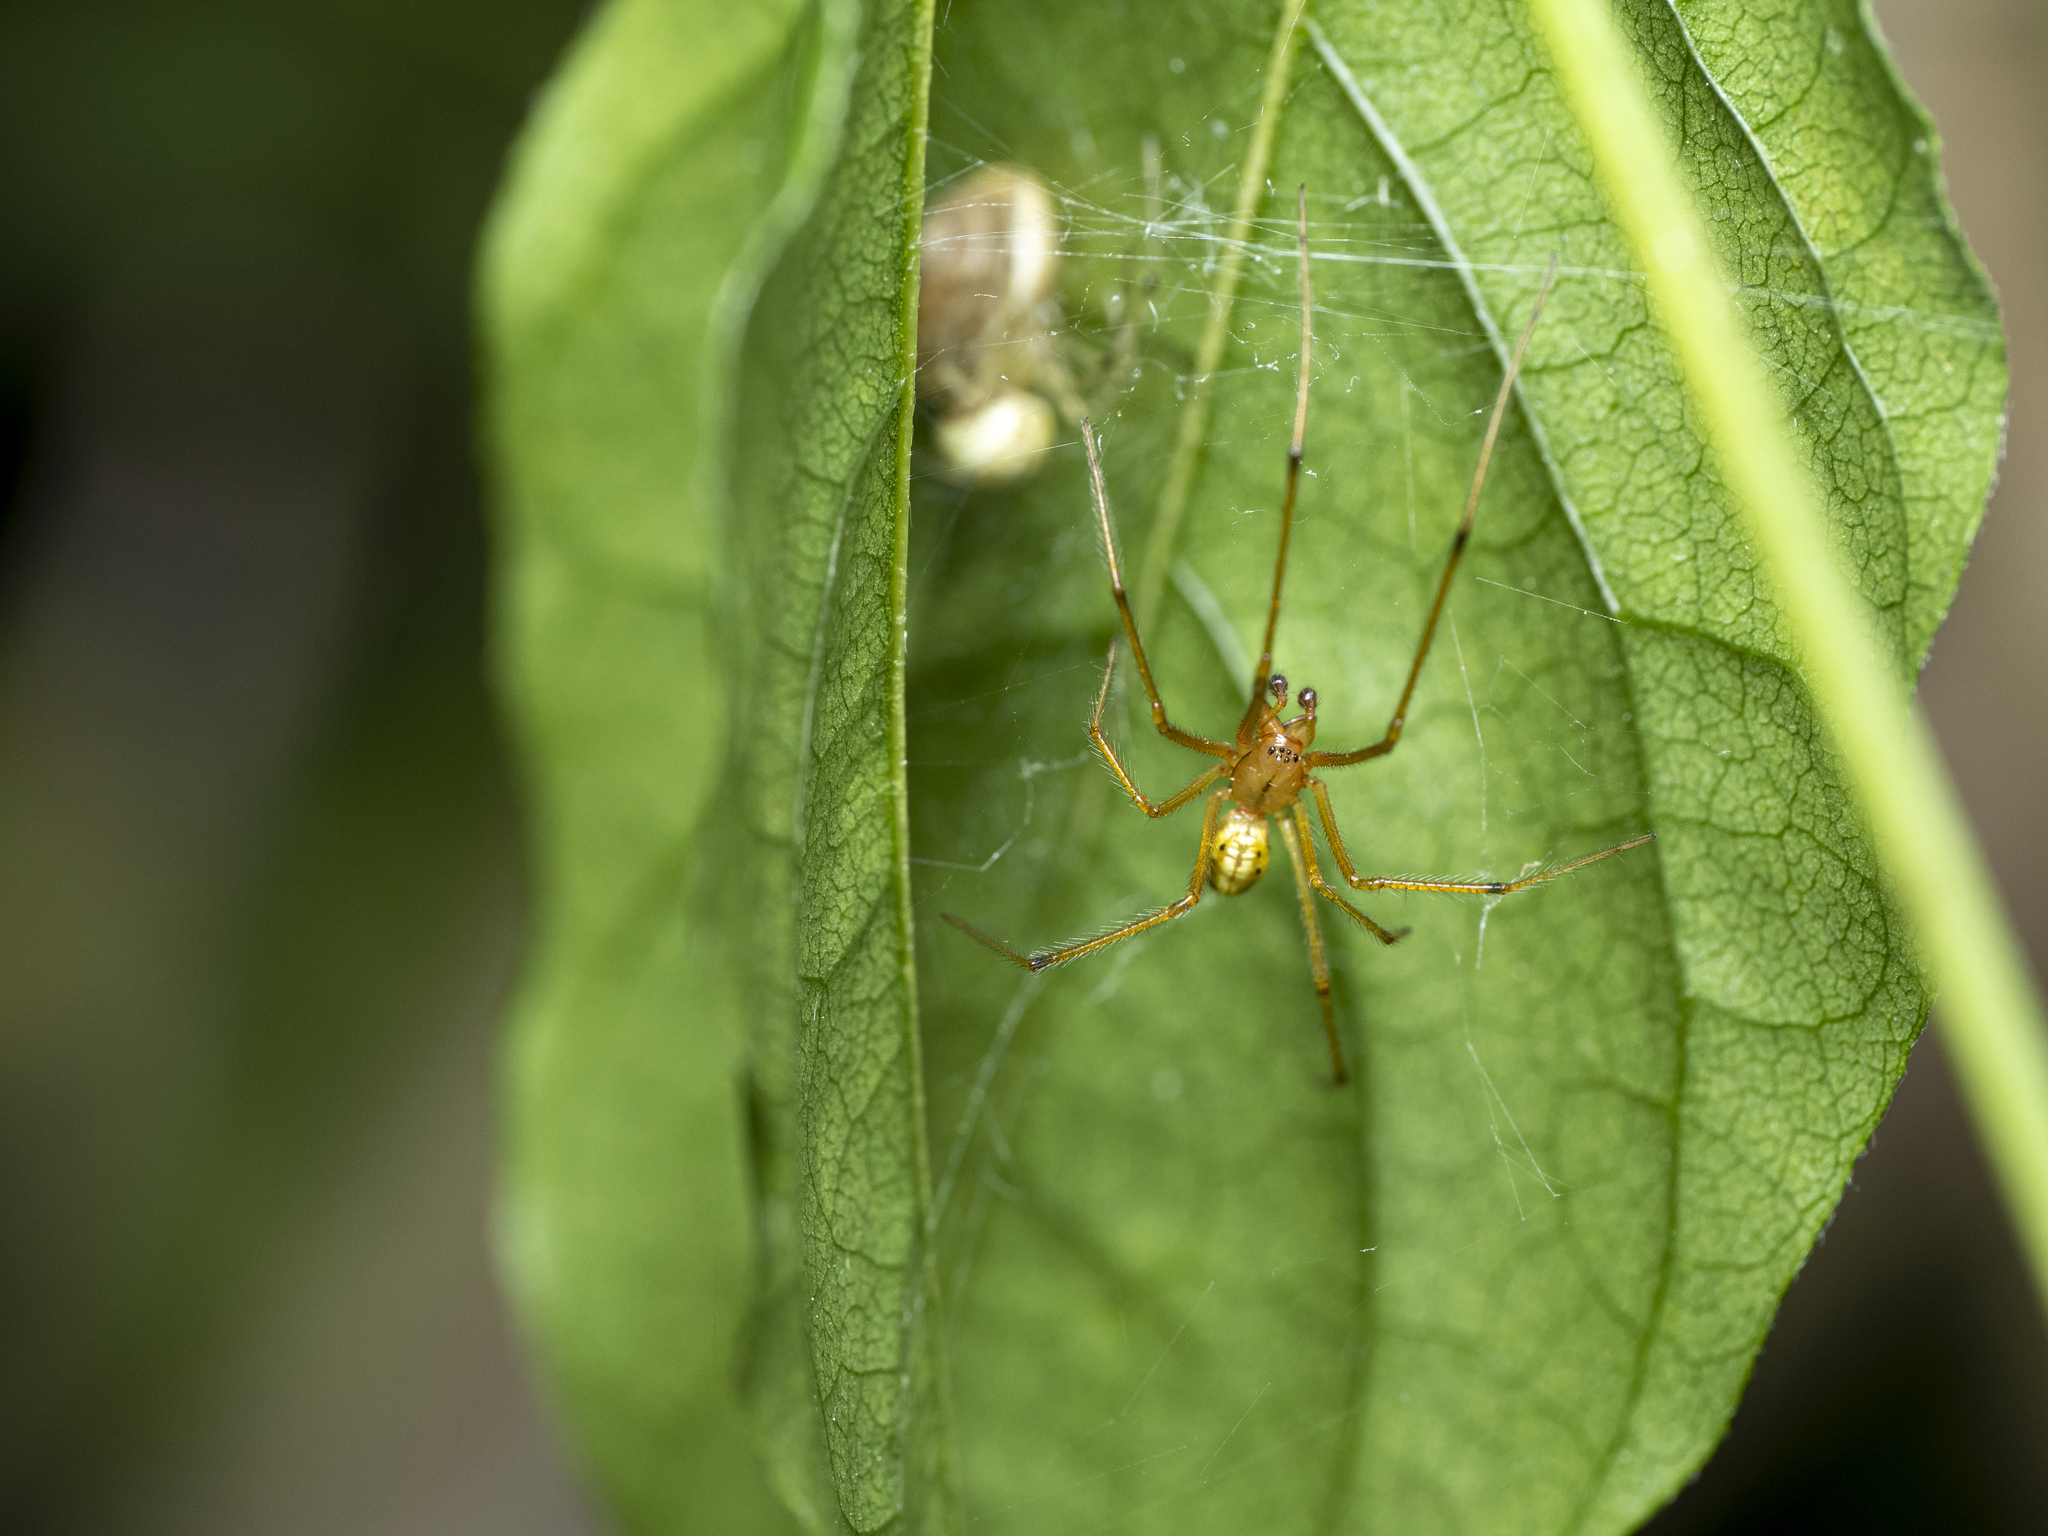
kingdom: Animalia
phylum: Arthropoda
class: Arachnida
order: Araneae
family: Theridiidae
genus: Enoplognatha
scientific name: Enoplognatha ovata
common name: Common candy-striped spider
